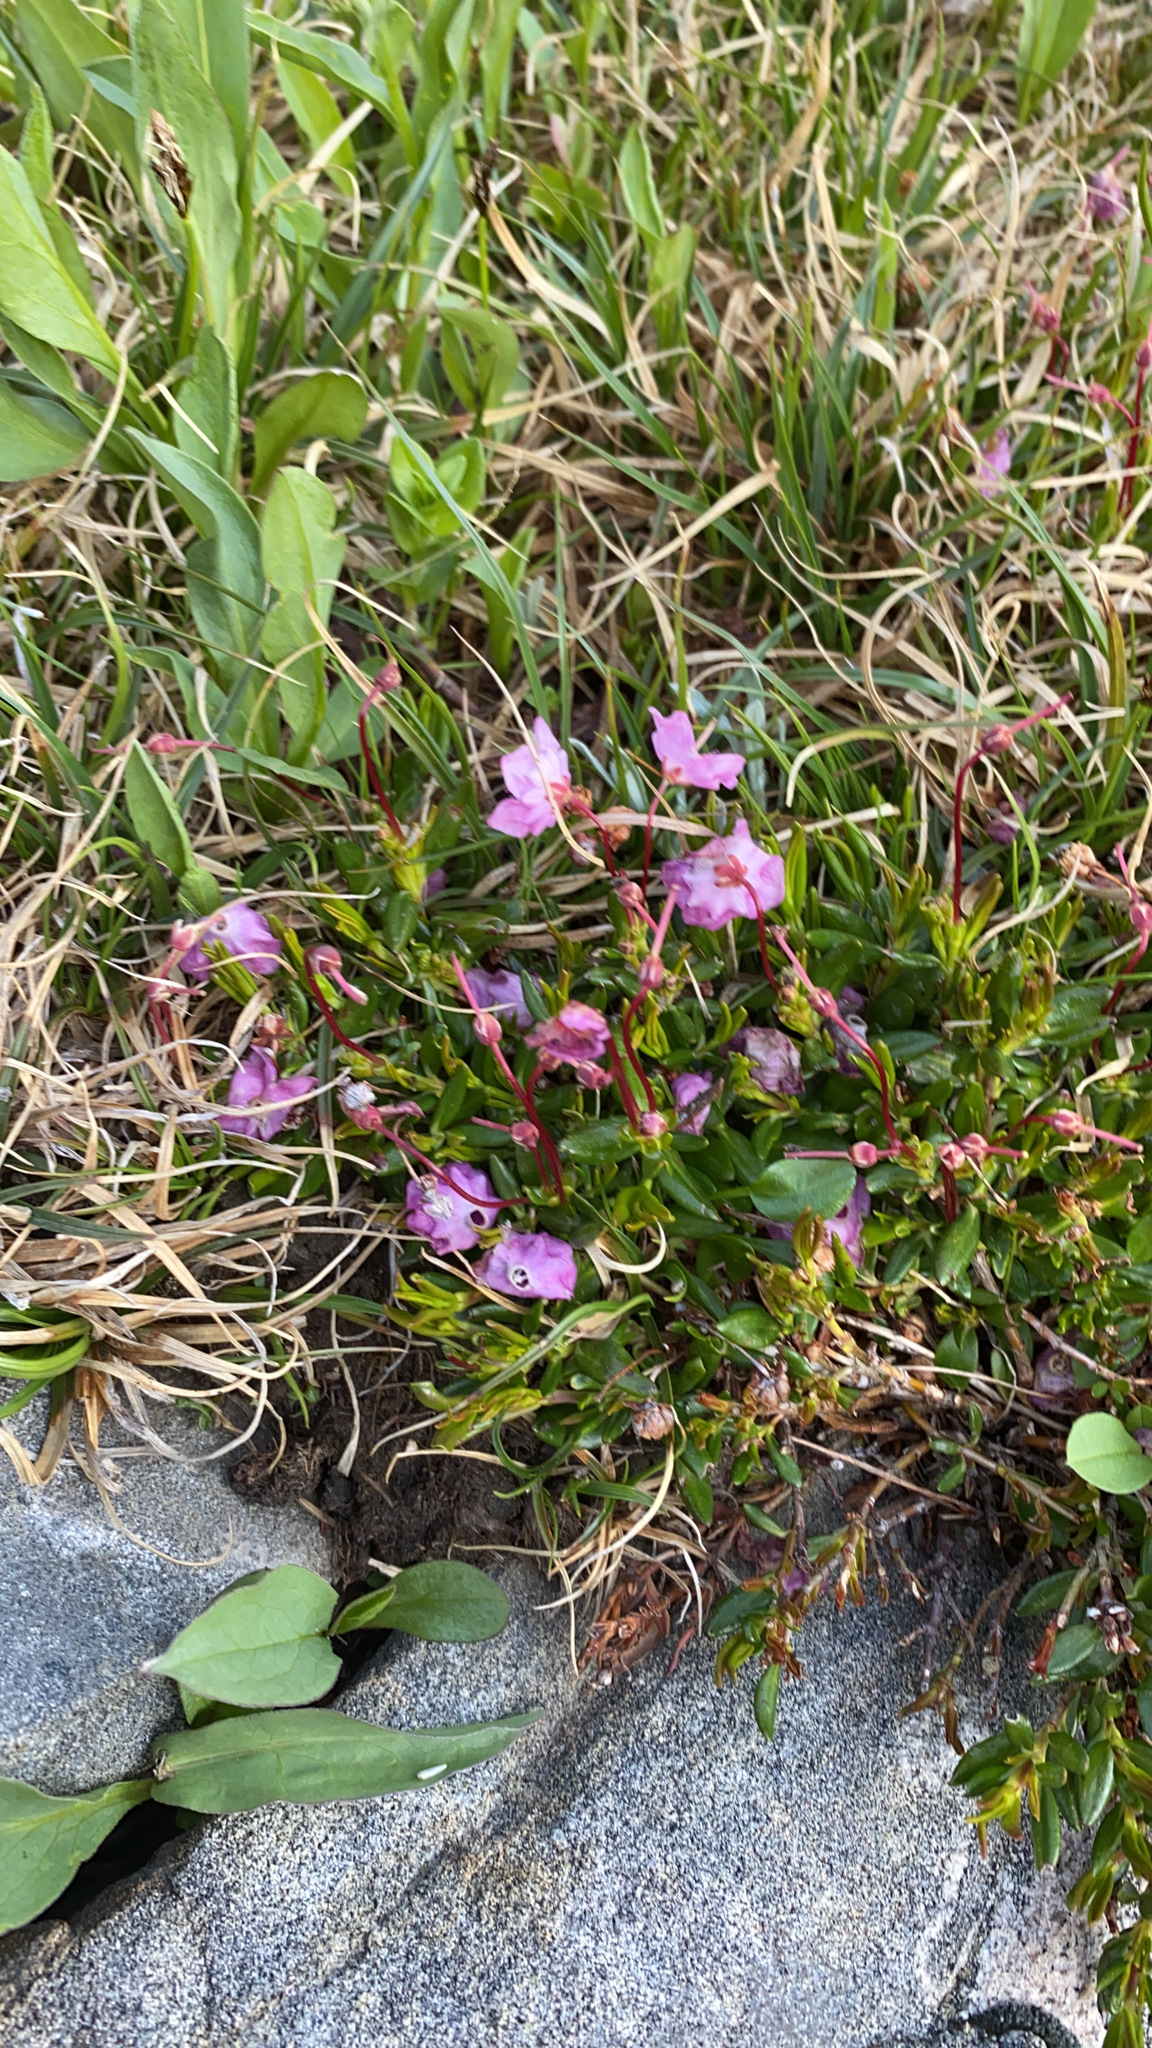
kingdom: Plantae
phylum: Tracheophyta
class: Magnoliopsida
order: Ericales
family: Ericaceae
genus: Kalmia
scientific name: Kalmia microphylla
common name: Alpine bog laurel
